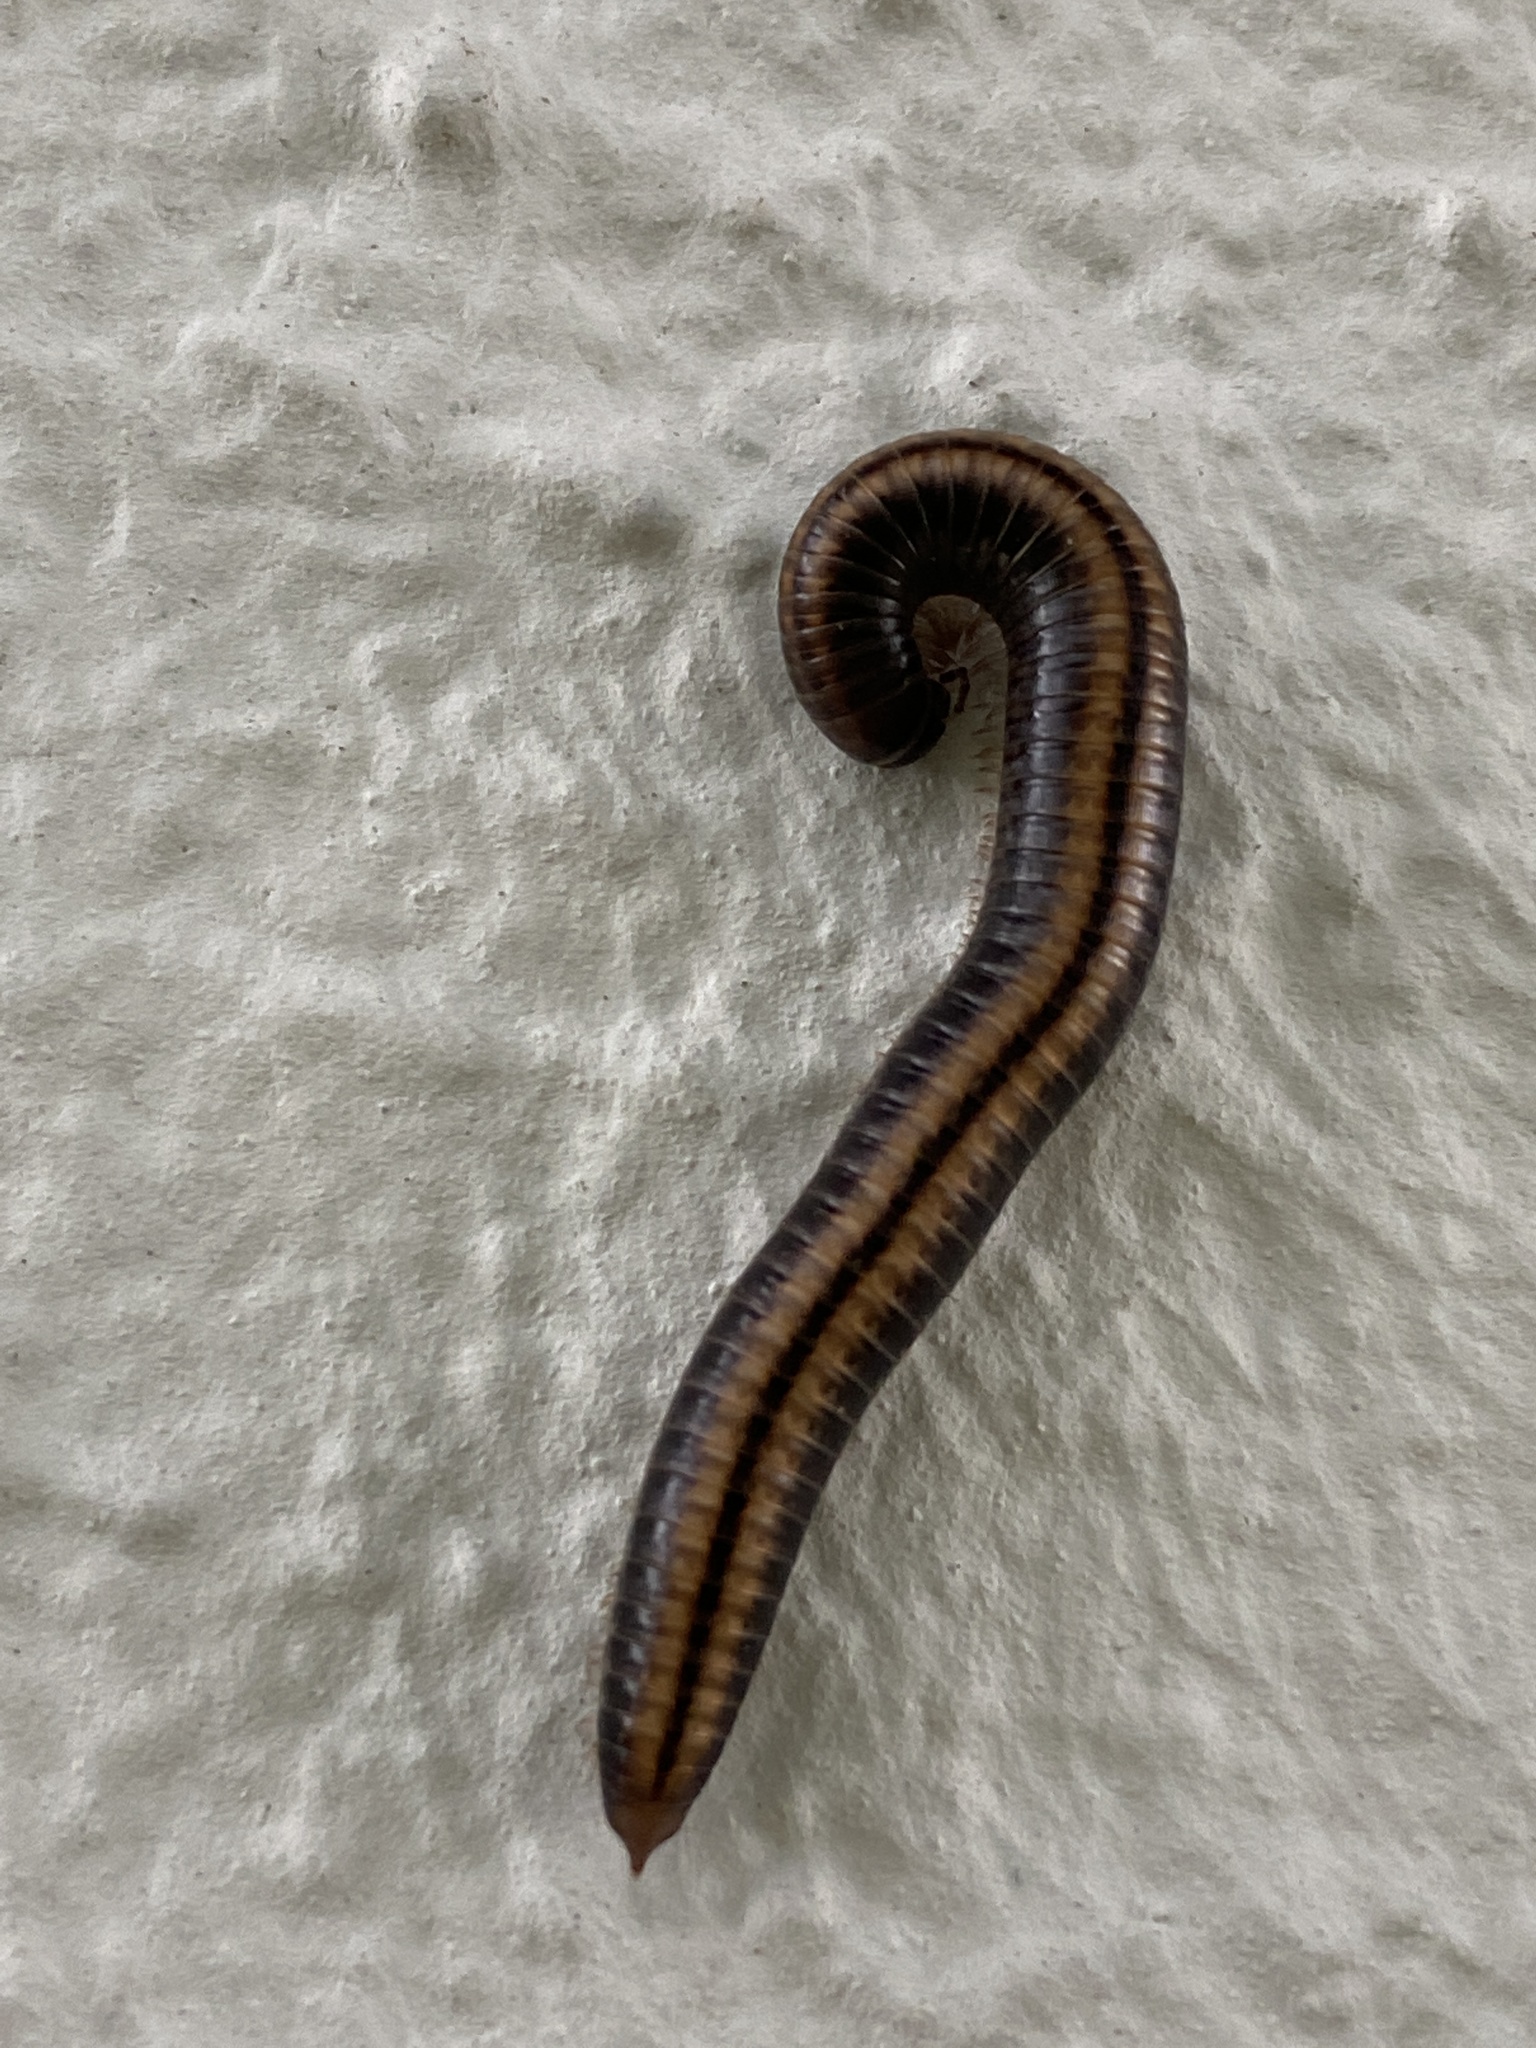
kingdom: Animalia
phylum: Arthropoda
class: Diplopoda
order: Julida
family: Julidae
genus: Ommatoiulus
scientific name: Ommatoiulus sabulosus
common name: Striped millipede
